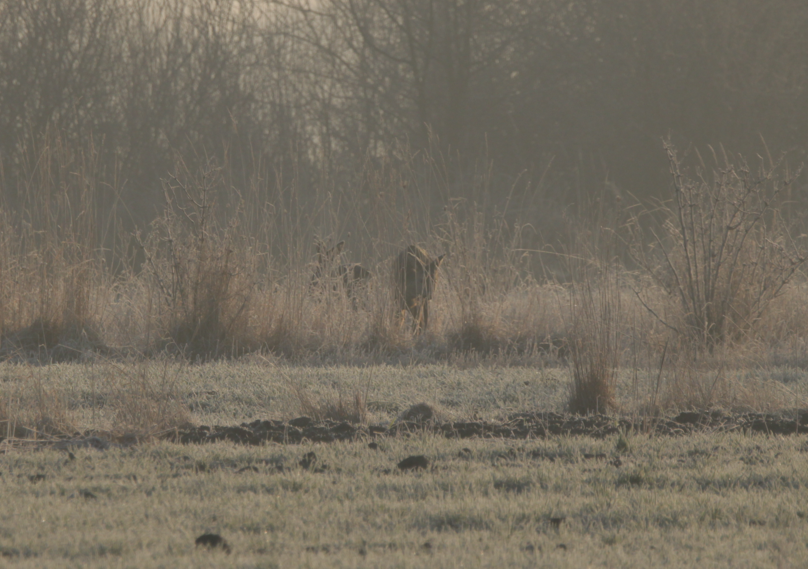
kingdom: Animalia
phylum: Chordata
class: Mammalia
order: Artiodactyla
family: Cervidae
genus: Capreolus
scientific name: Capreolus capreolus
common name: Western roe deer
